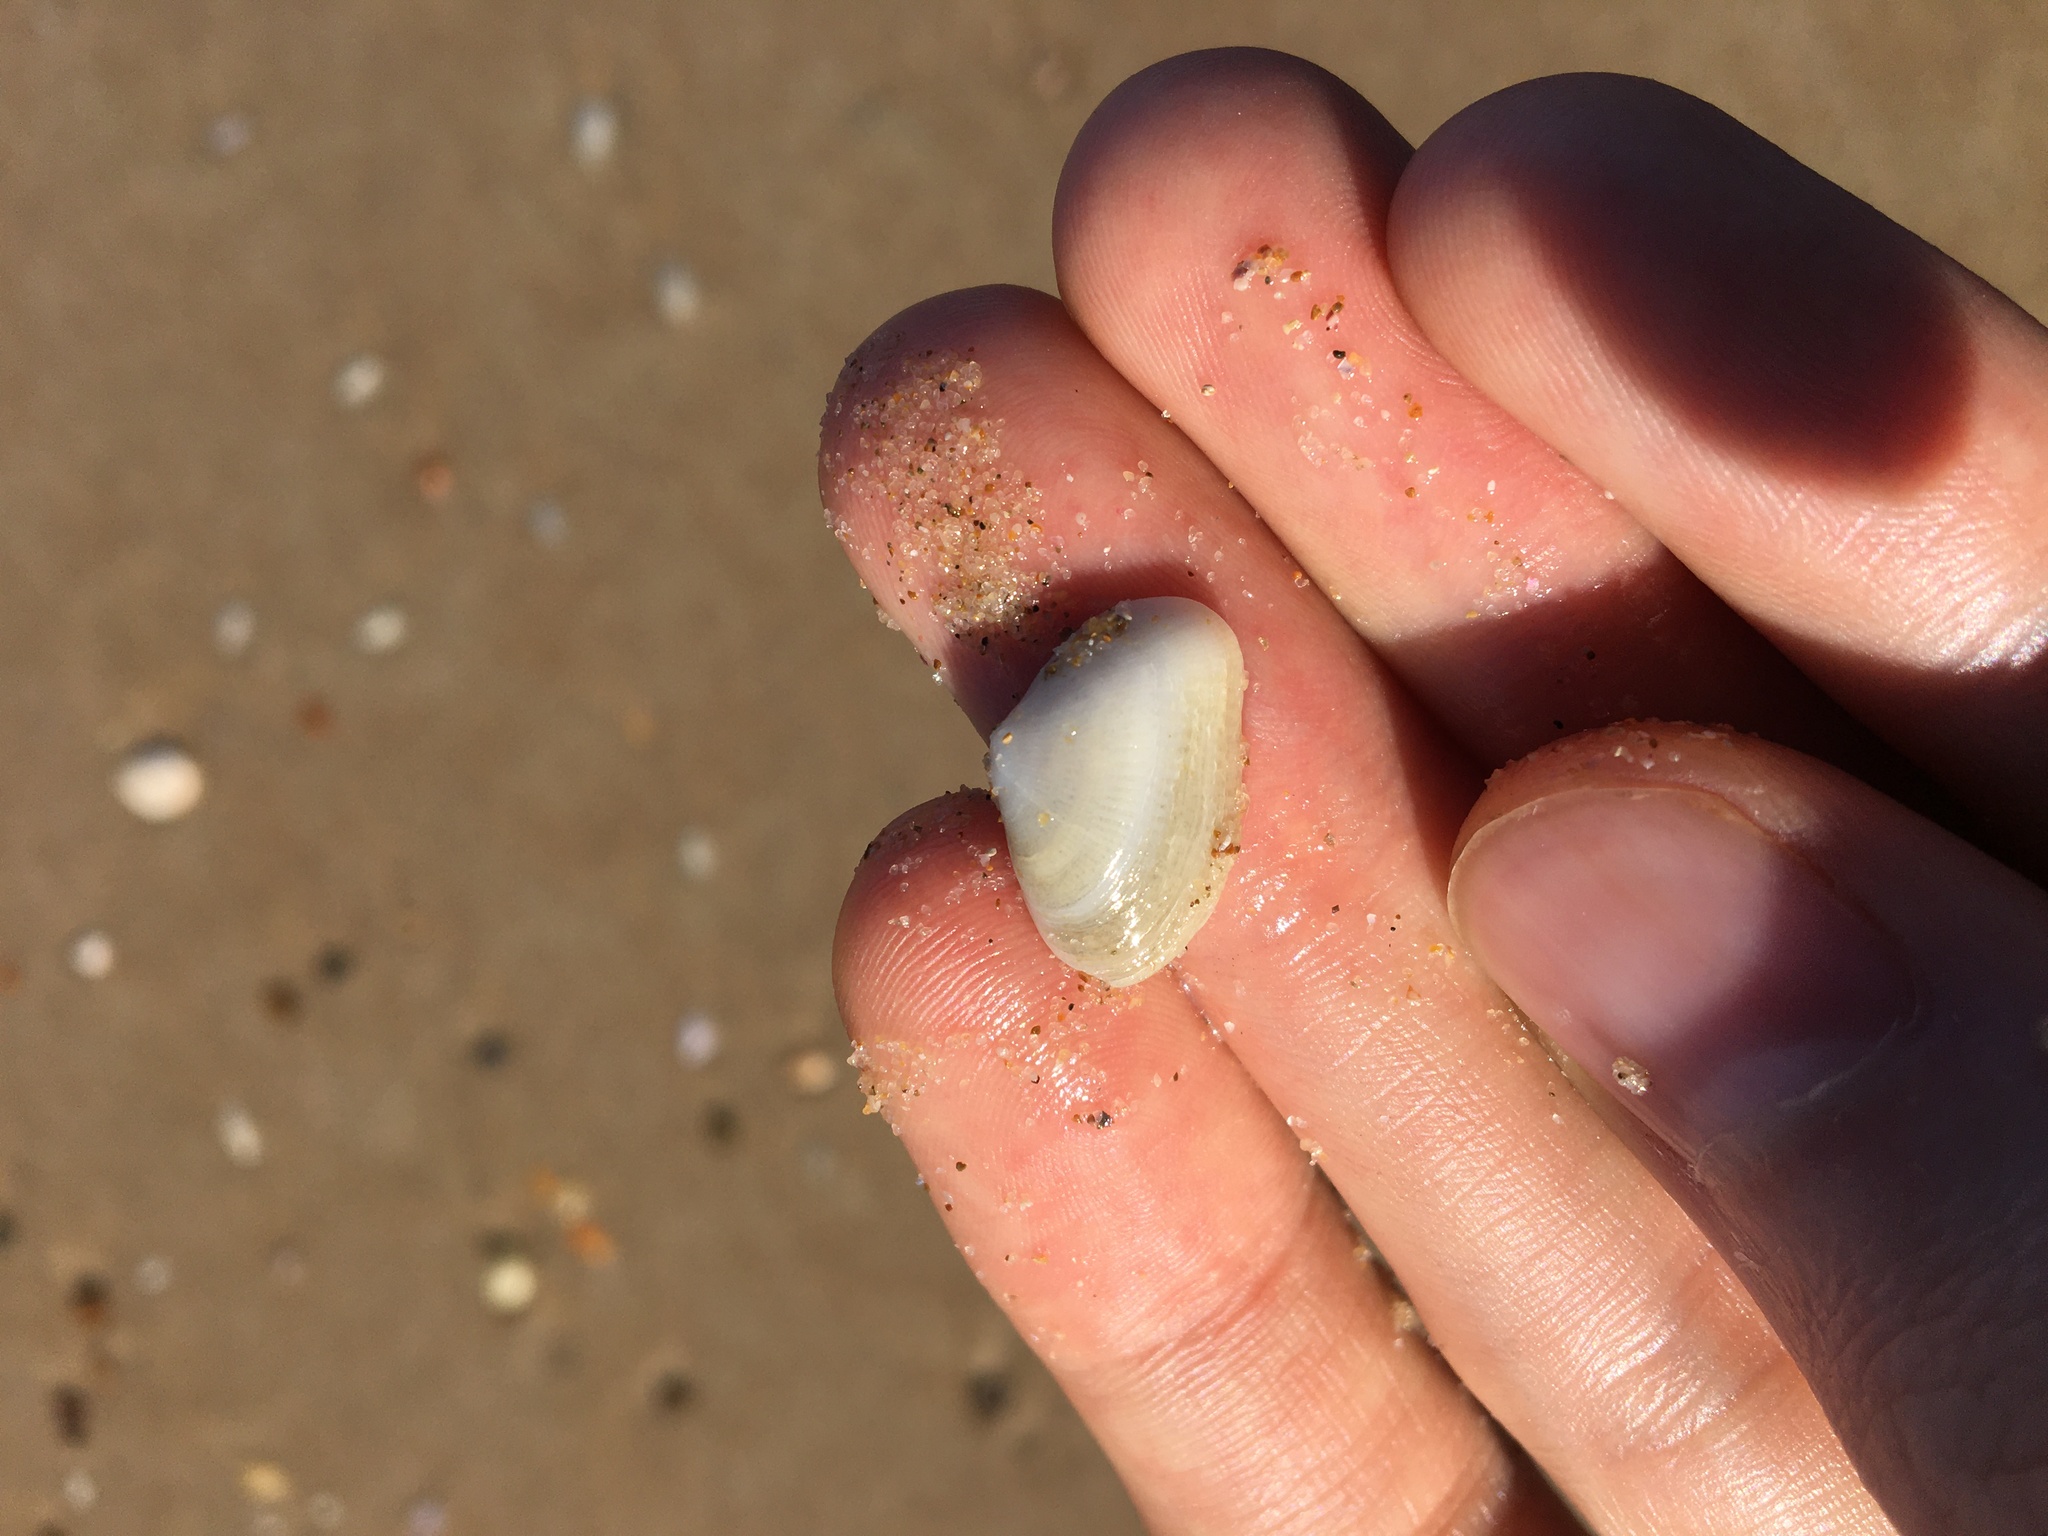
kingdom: Animalia
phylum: Mollusca
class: Bivalvia
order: Venerida
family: Hemidonacidae
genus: Hemidonax
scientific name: Hemidonax dactylus
